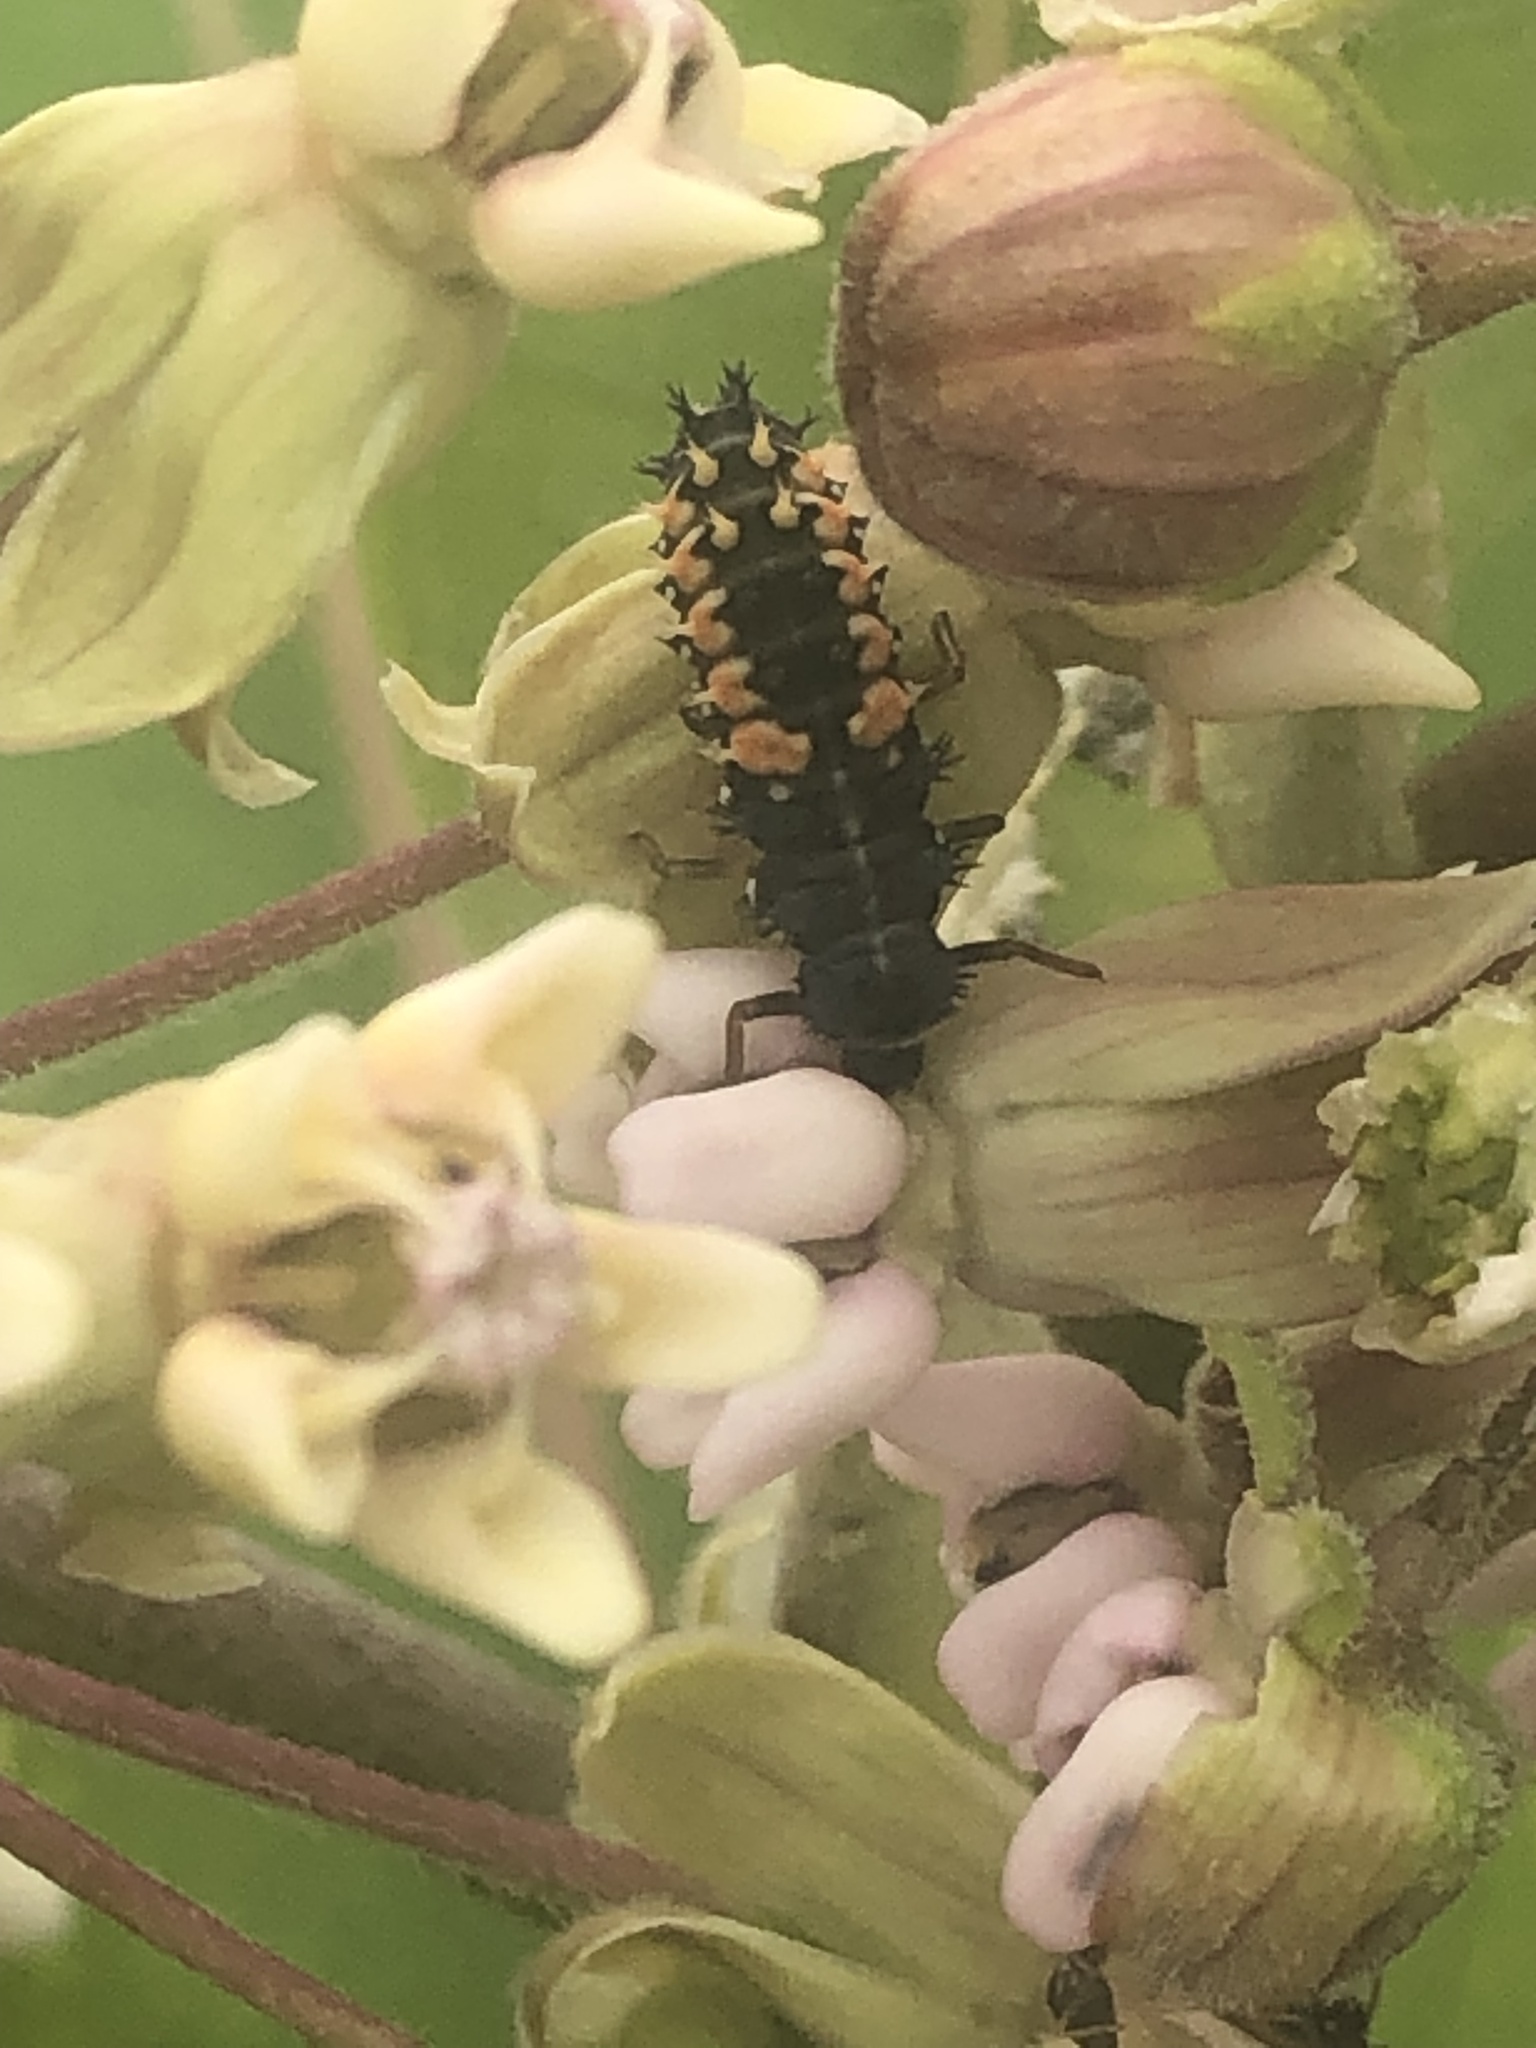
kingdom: Animalia
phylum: Arthropoda
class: Insecta
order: Coleoptera
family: Coccinellidae
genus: Harmonia
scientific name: Harmonia axyridis
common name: Harlequin ladybird
